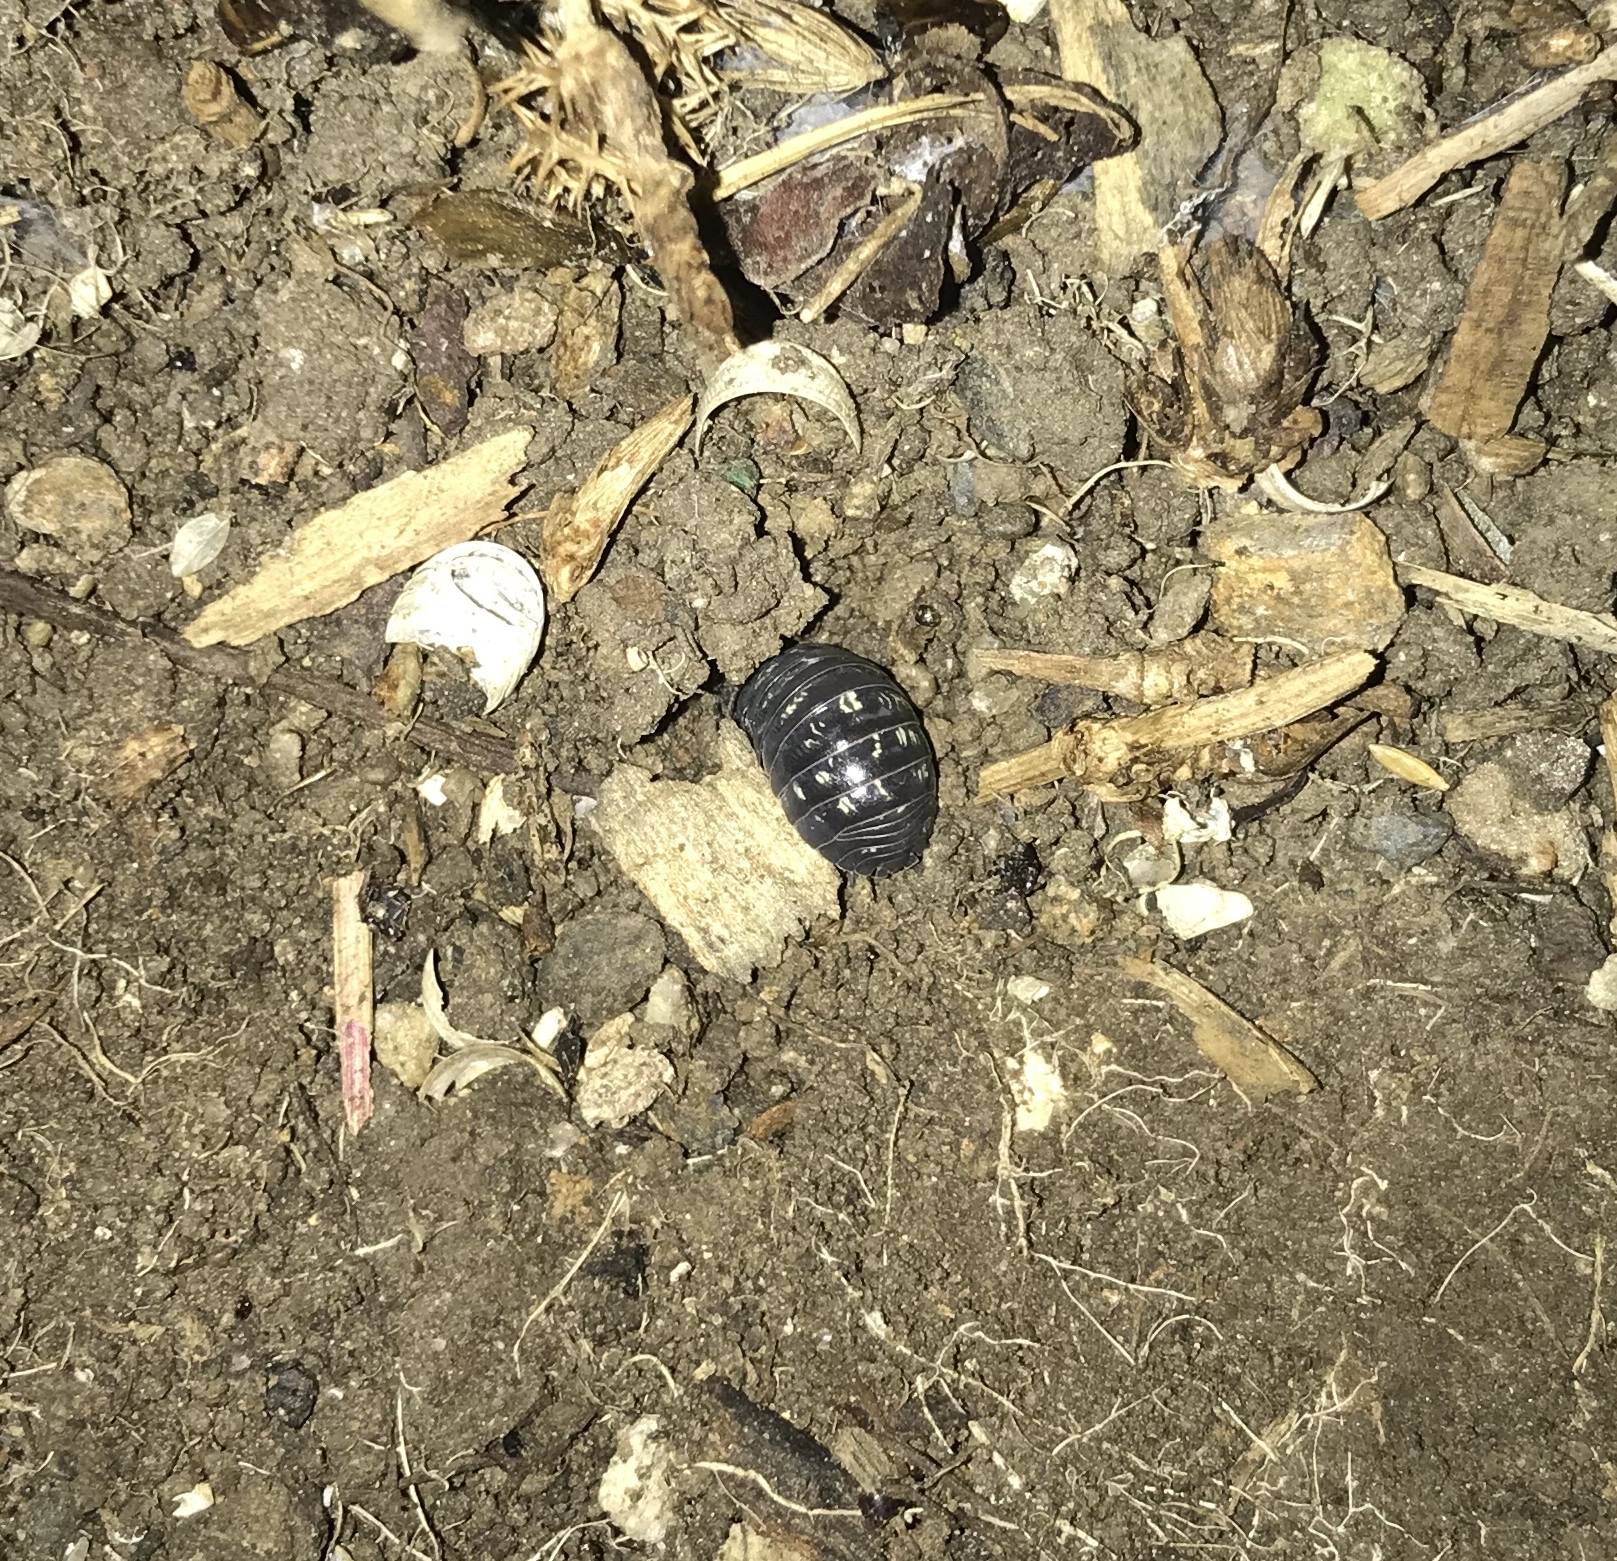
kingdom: Animalia
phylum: Arthropoda
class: Malacostraca
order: Isopoda
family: Armadillidiidae
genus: Armadillidium
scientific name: Armadillidium vulgare
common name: Common pill woodlouse
